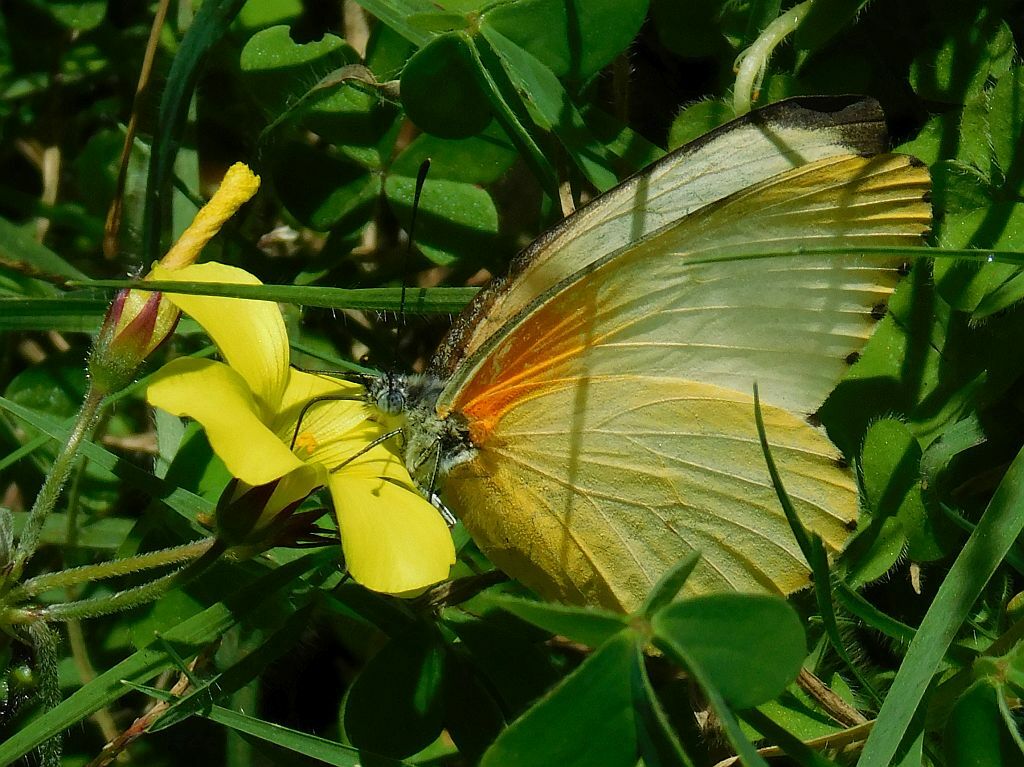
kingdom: Animalia
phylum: Arthropoda
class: Insecta
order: Lepidoptera
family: Pieridae
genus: Mylothris
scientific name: Mylothris agathina
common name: Eastern dotted border
